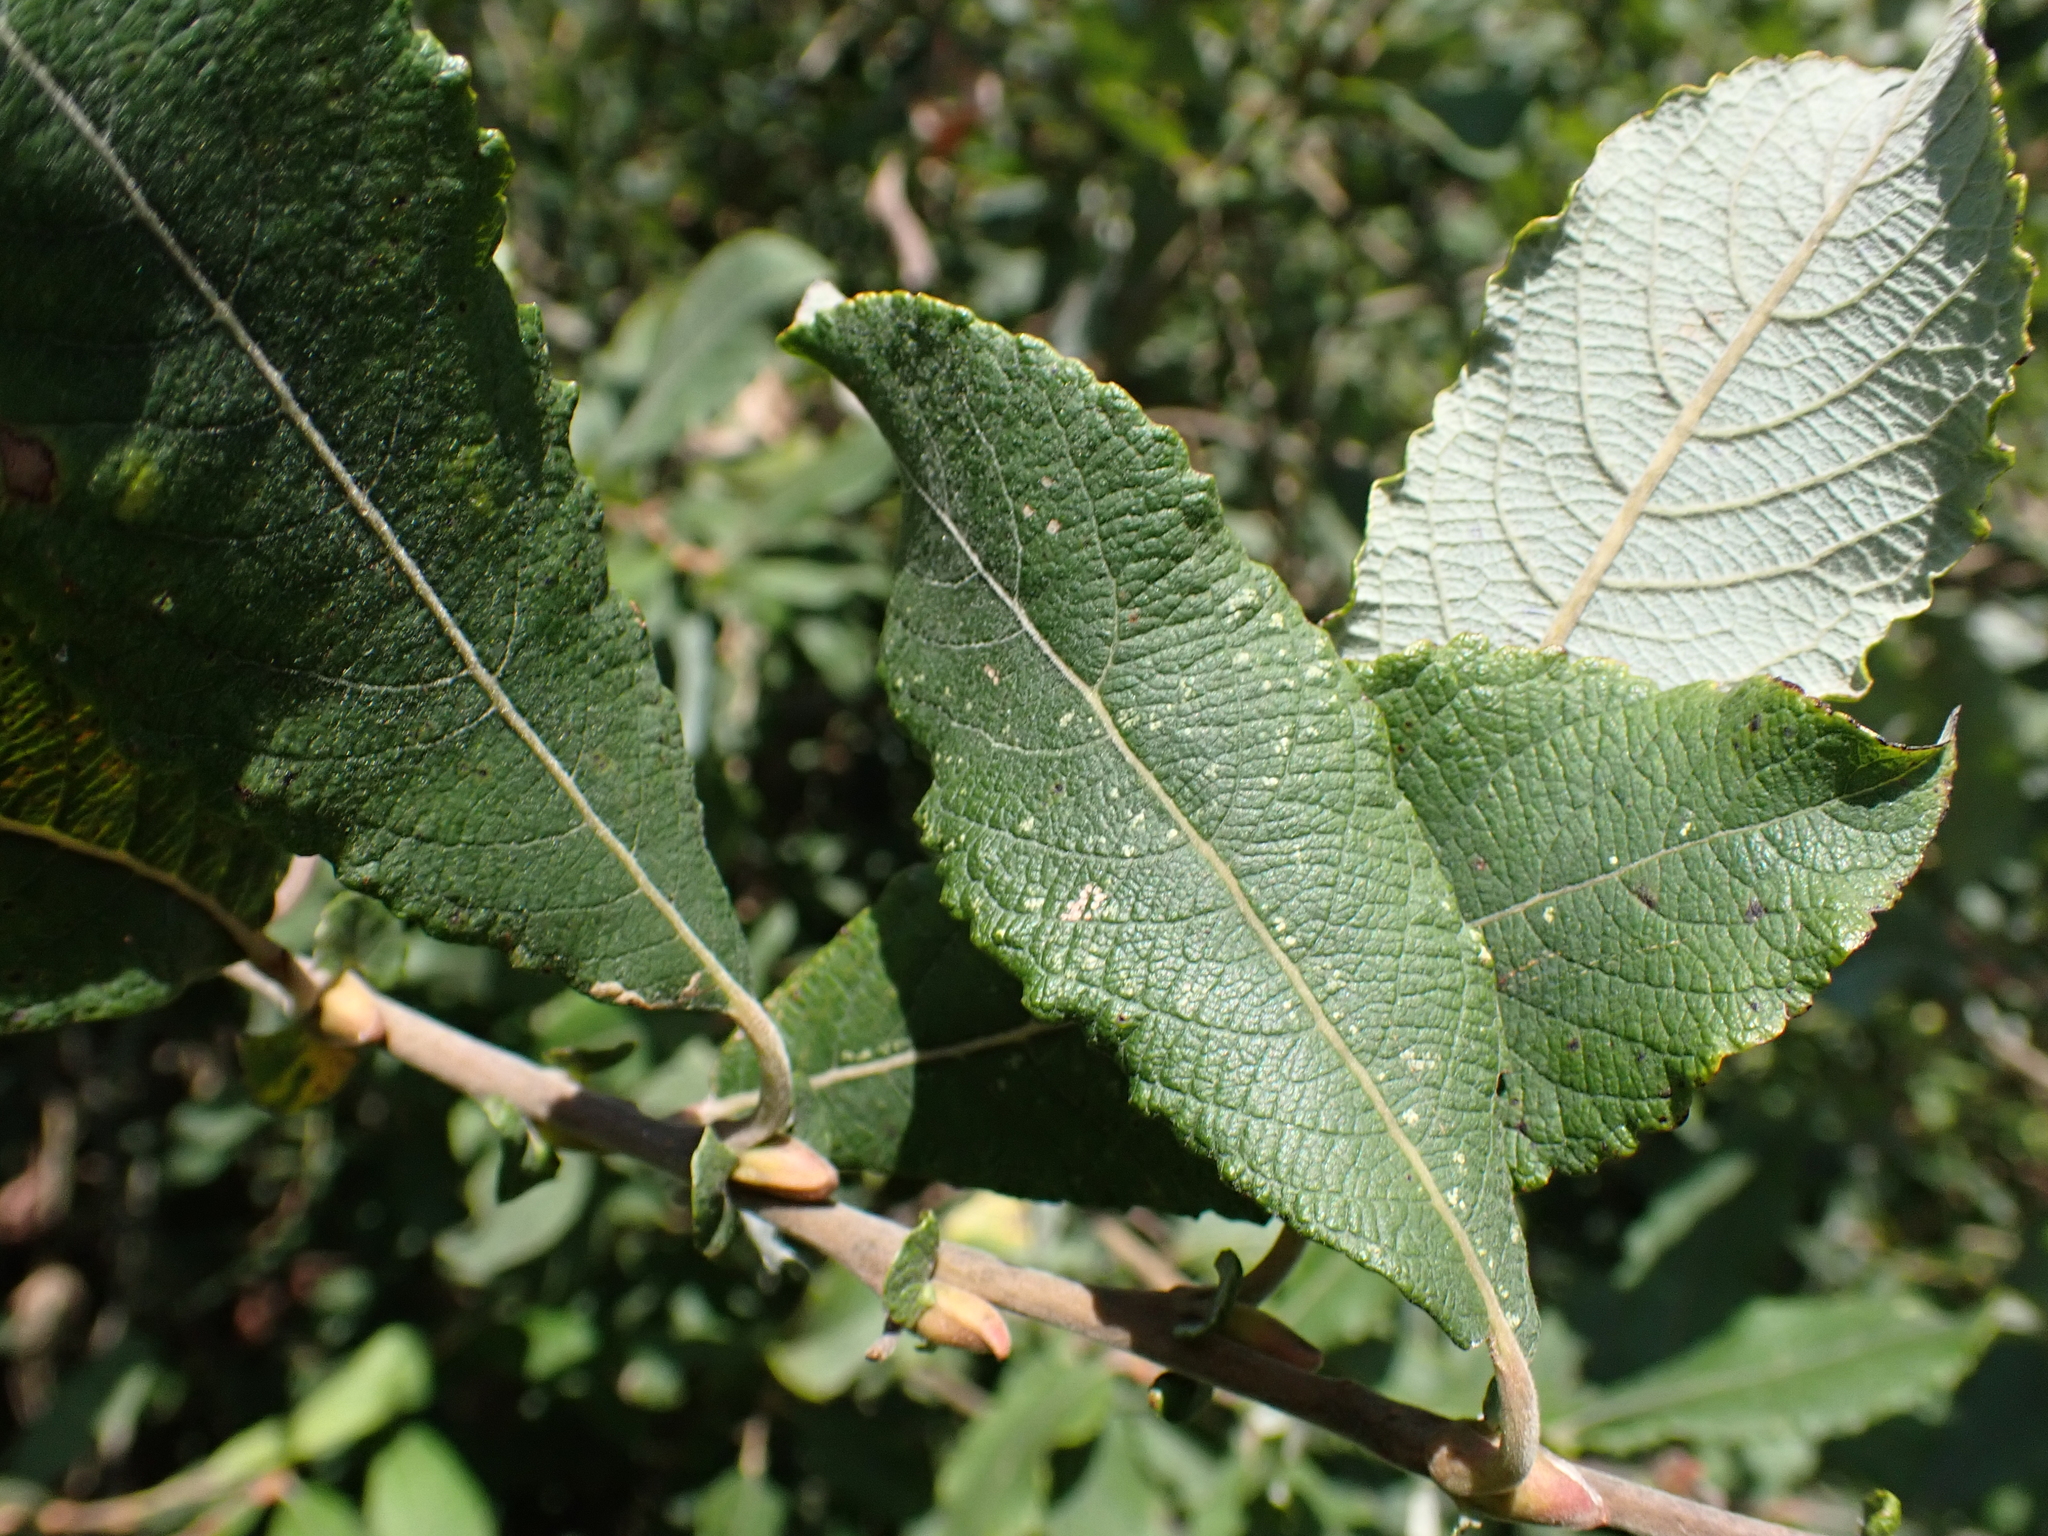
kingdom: Plantae
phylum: Tracheophyta
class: Magnoliopsida
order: Malpighiales
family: Salicaceae
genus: Salix
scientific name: Salix cinerea
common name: Common sallow
